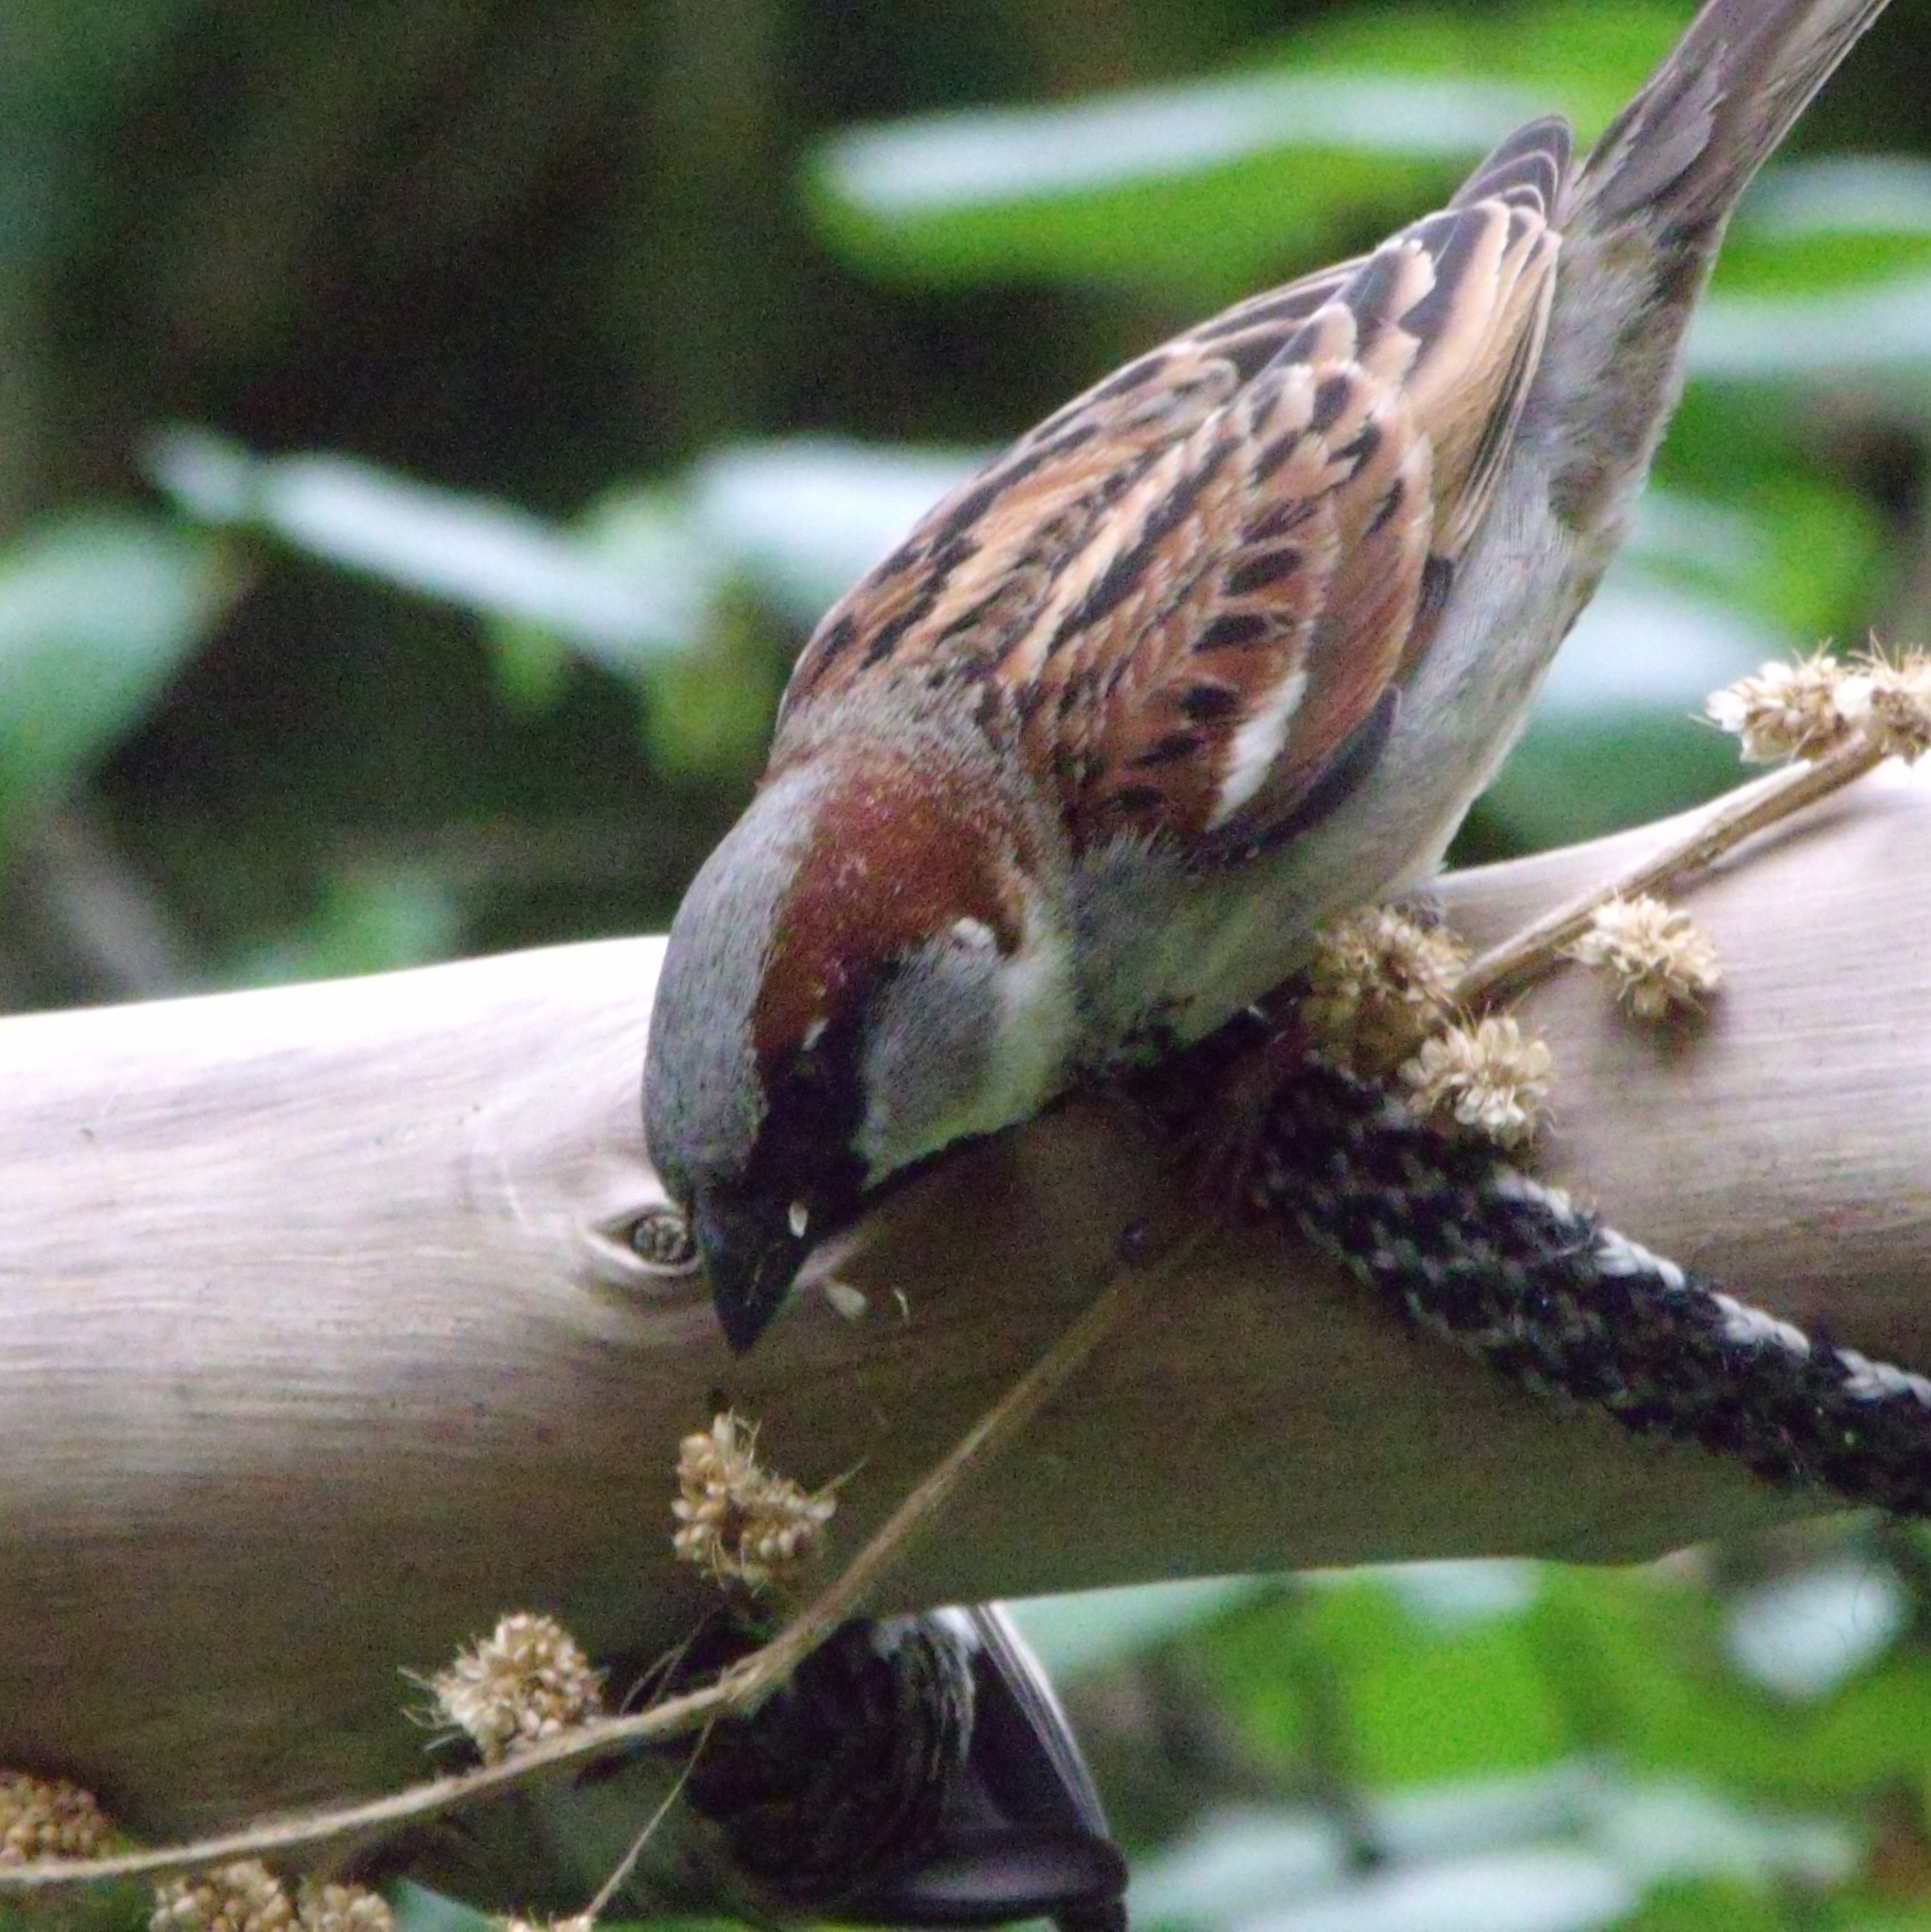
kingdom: Animalia
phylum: Chordata
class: Aves
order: Passeriformes
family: Passeridae
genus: Passer
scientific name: Passer domesticus
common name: House sparrow
